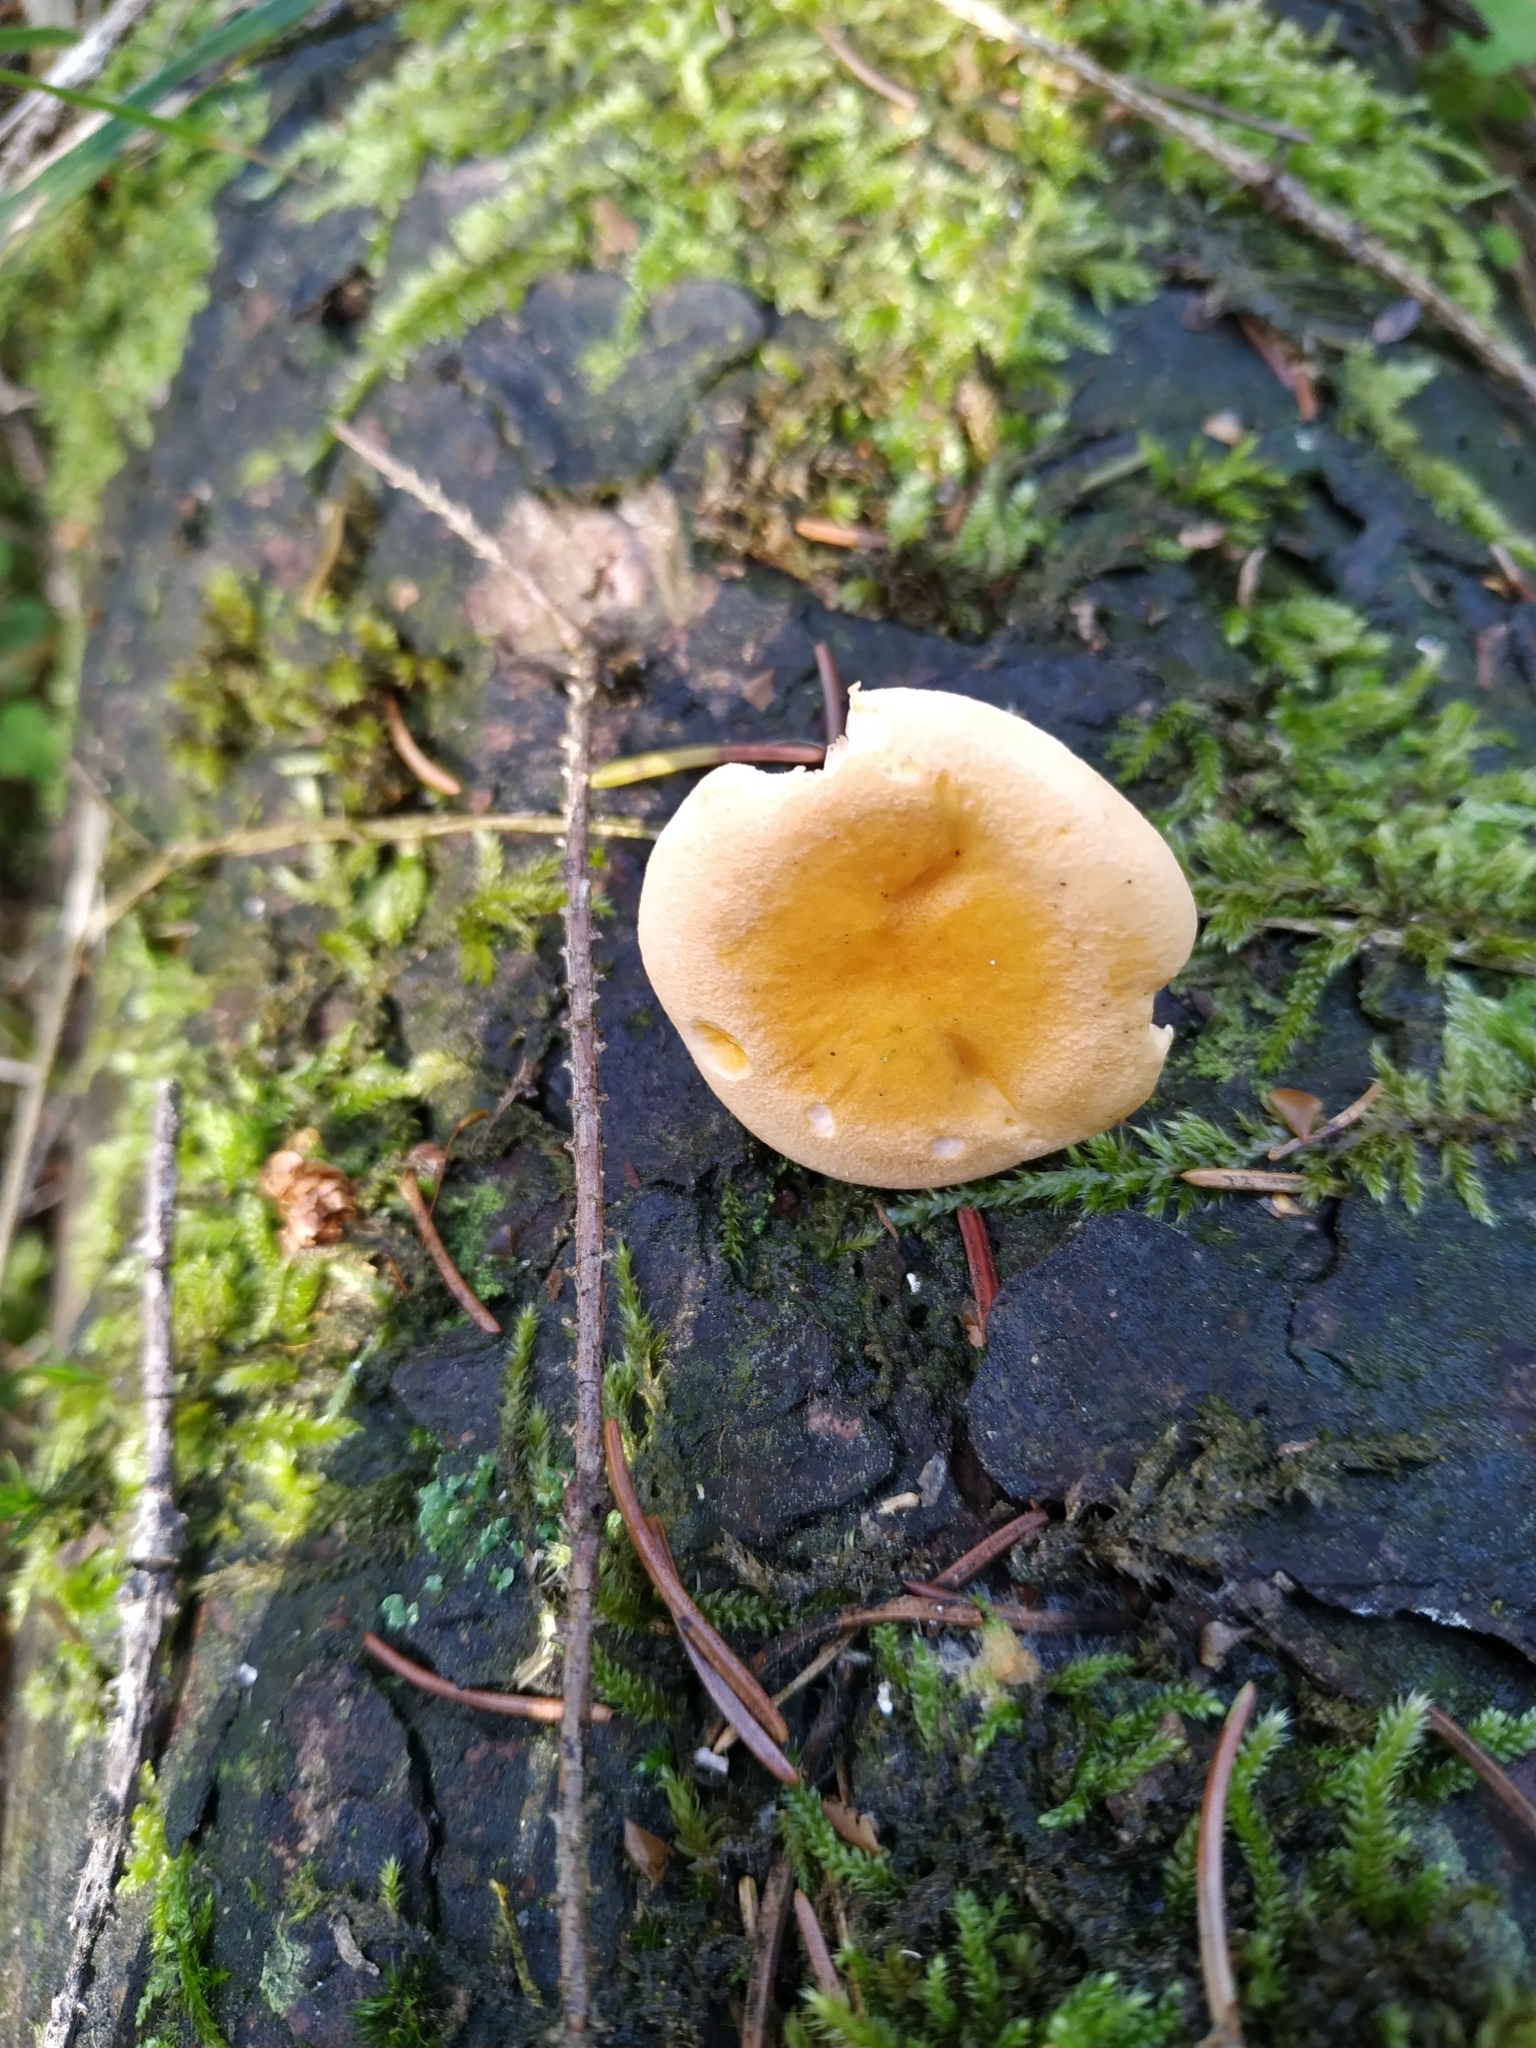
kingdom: Fungi
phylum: Basidiomycota
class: Agaricomycetes
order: Boletales
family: Hygrophoropsidaceae
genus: Hygrophoropsis
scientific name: Hygrophoropsis aurantiaca
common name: False chanterelle
